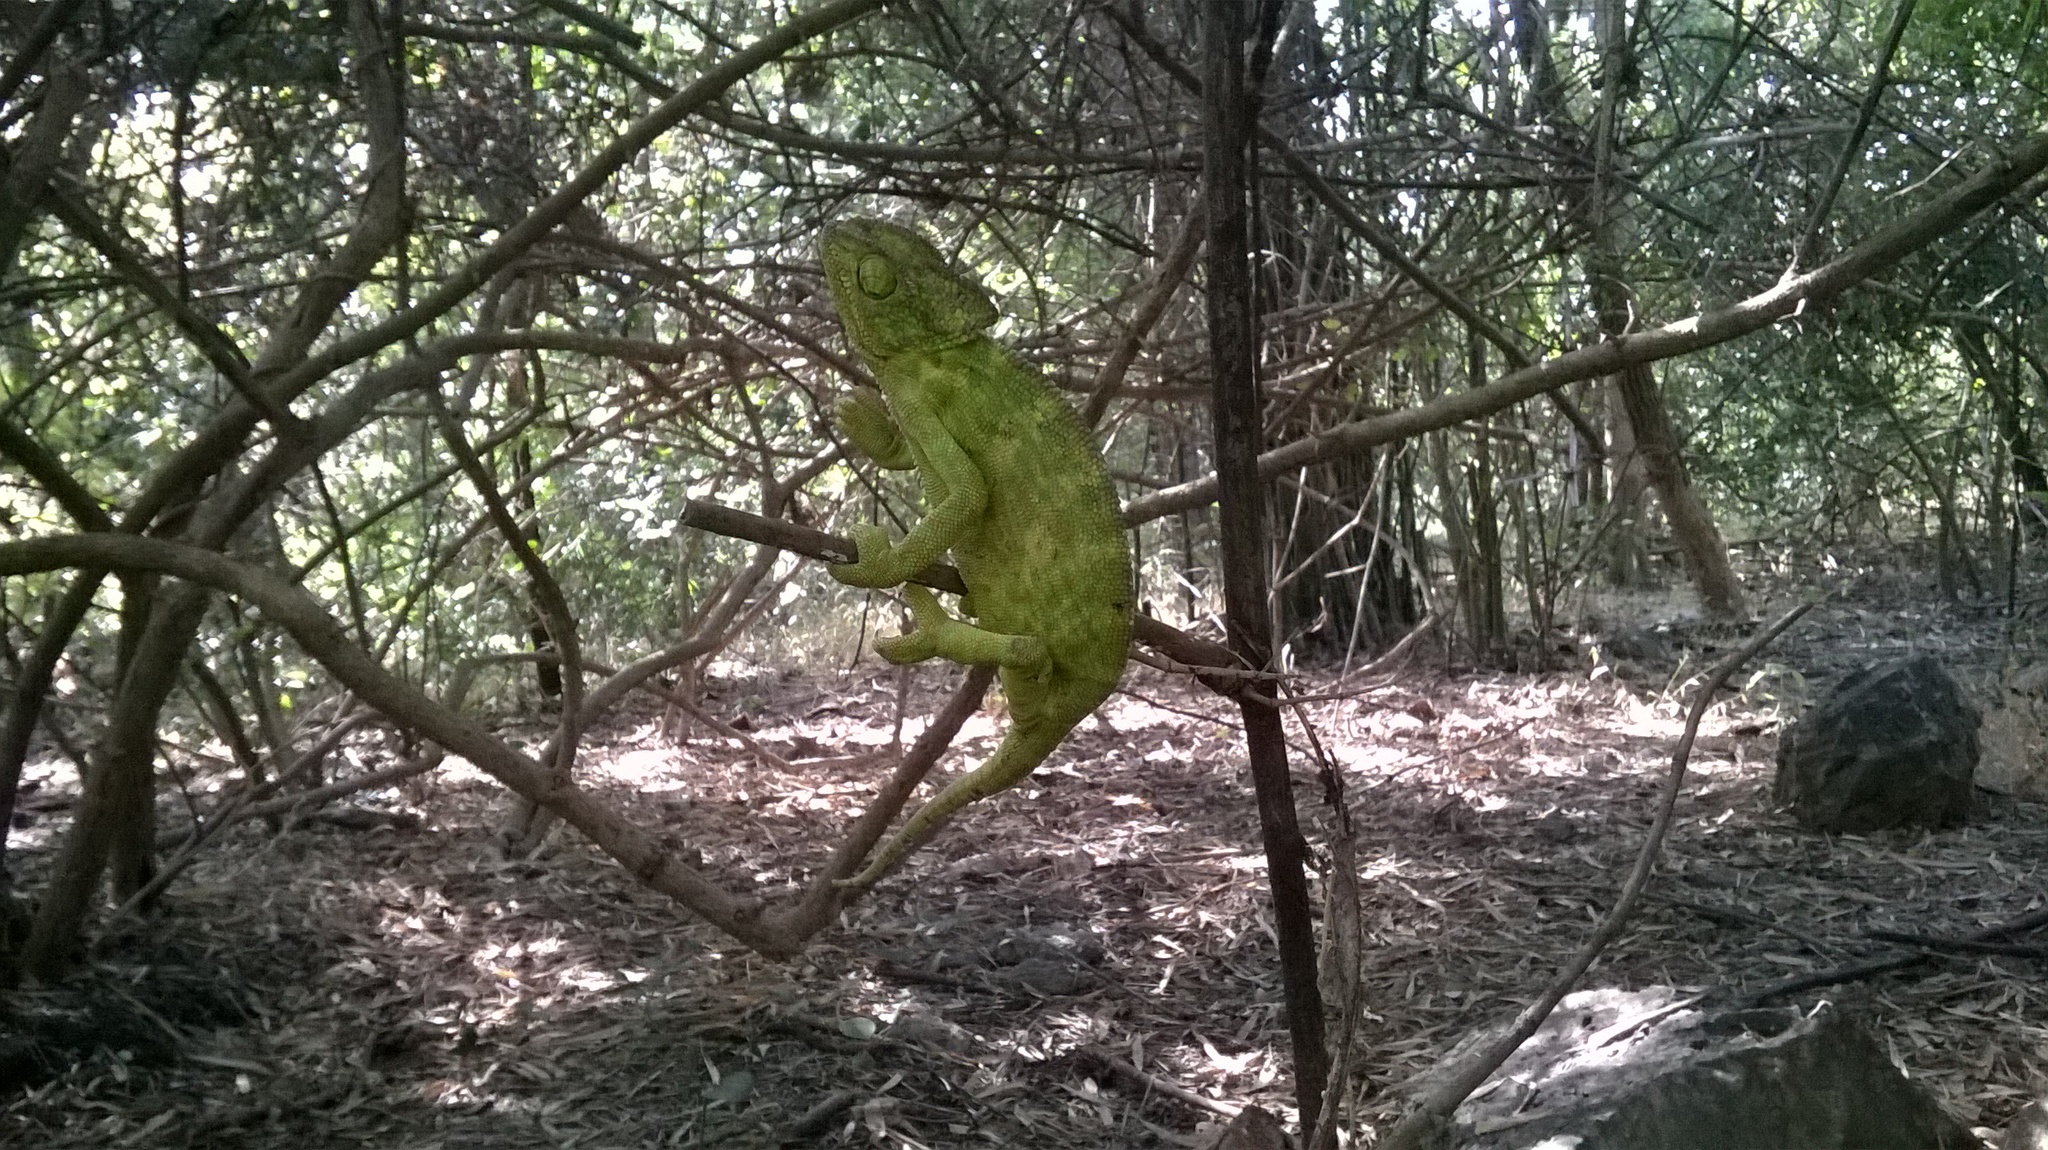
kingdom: Animalia
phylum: Chordata
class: Squamata
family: Chamaeleonidae
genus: Chamaeleo
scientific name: Chamaeleo zeylanicus
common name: Indian chameleon
